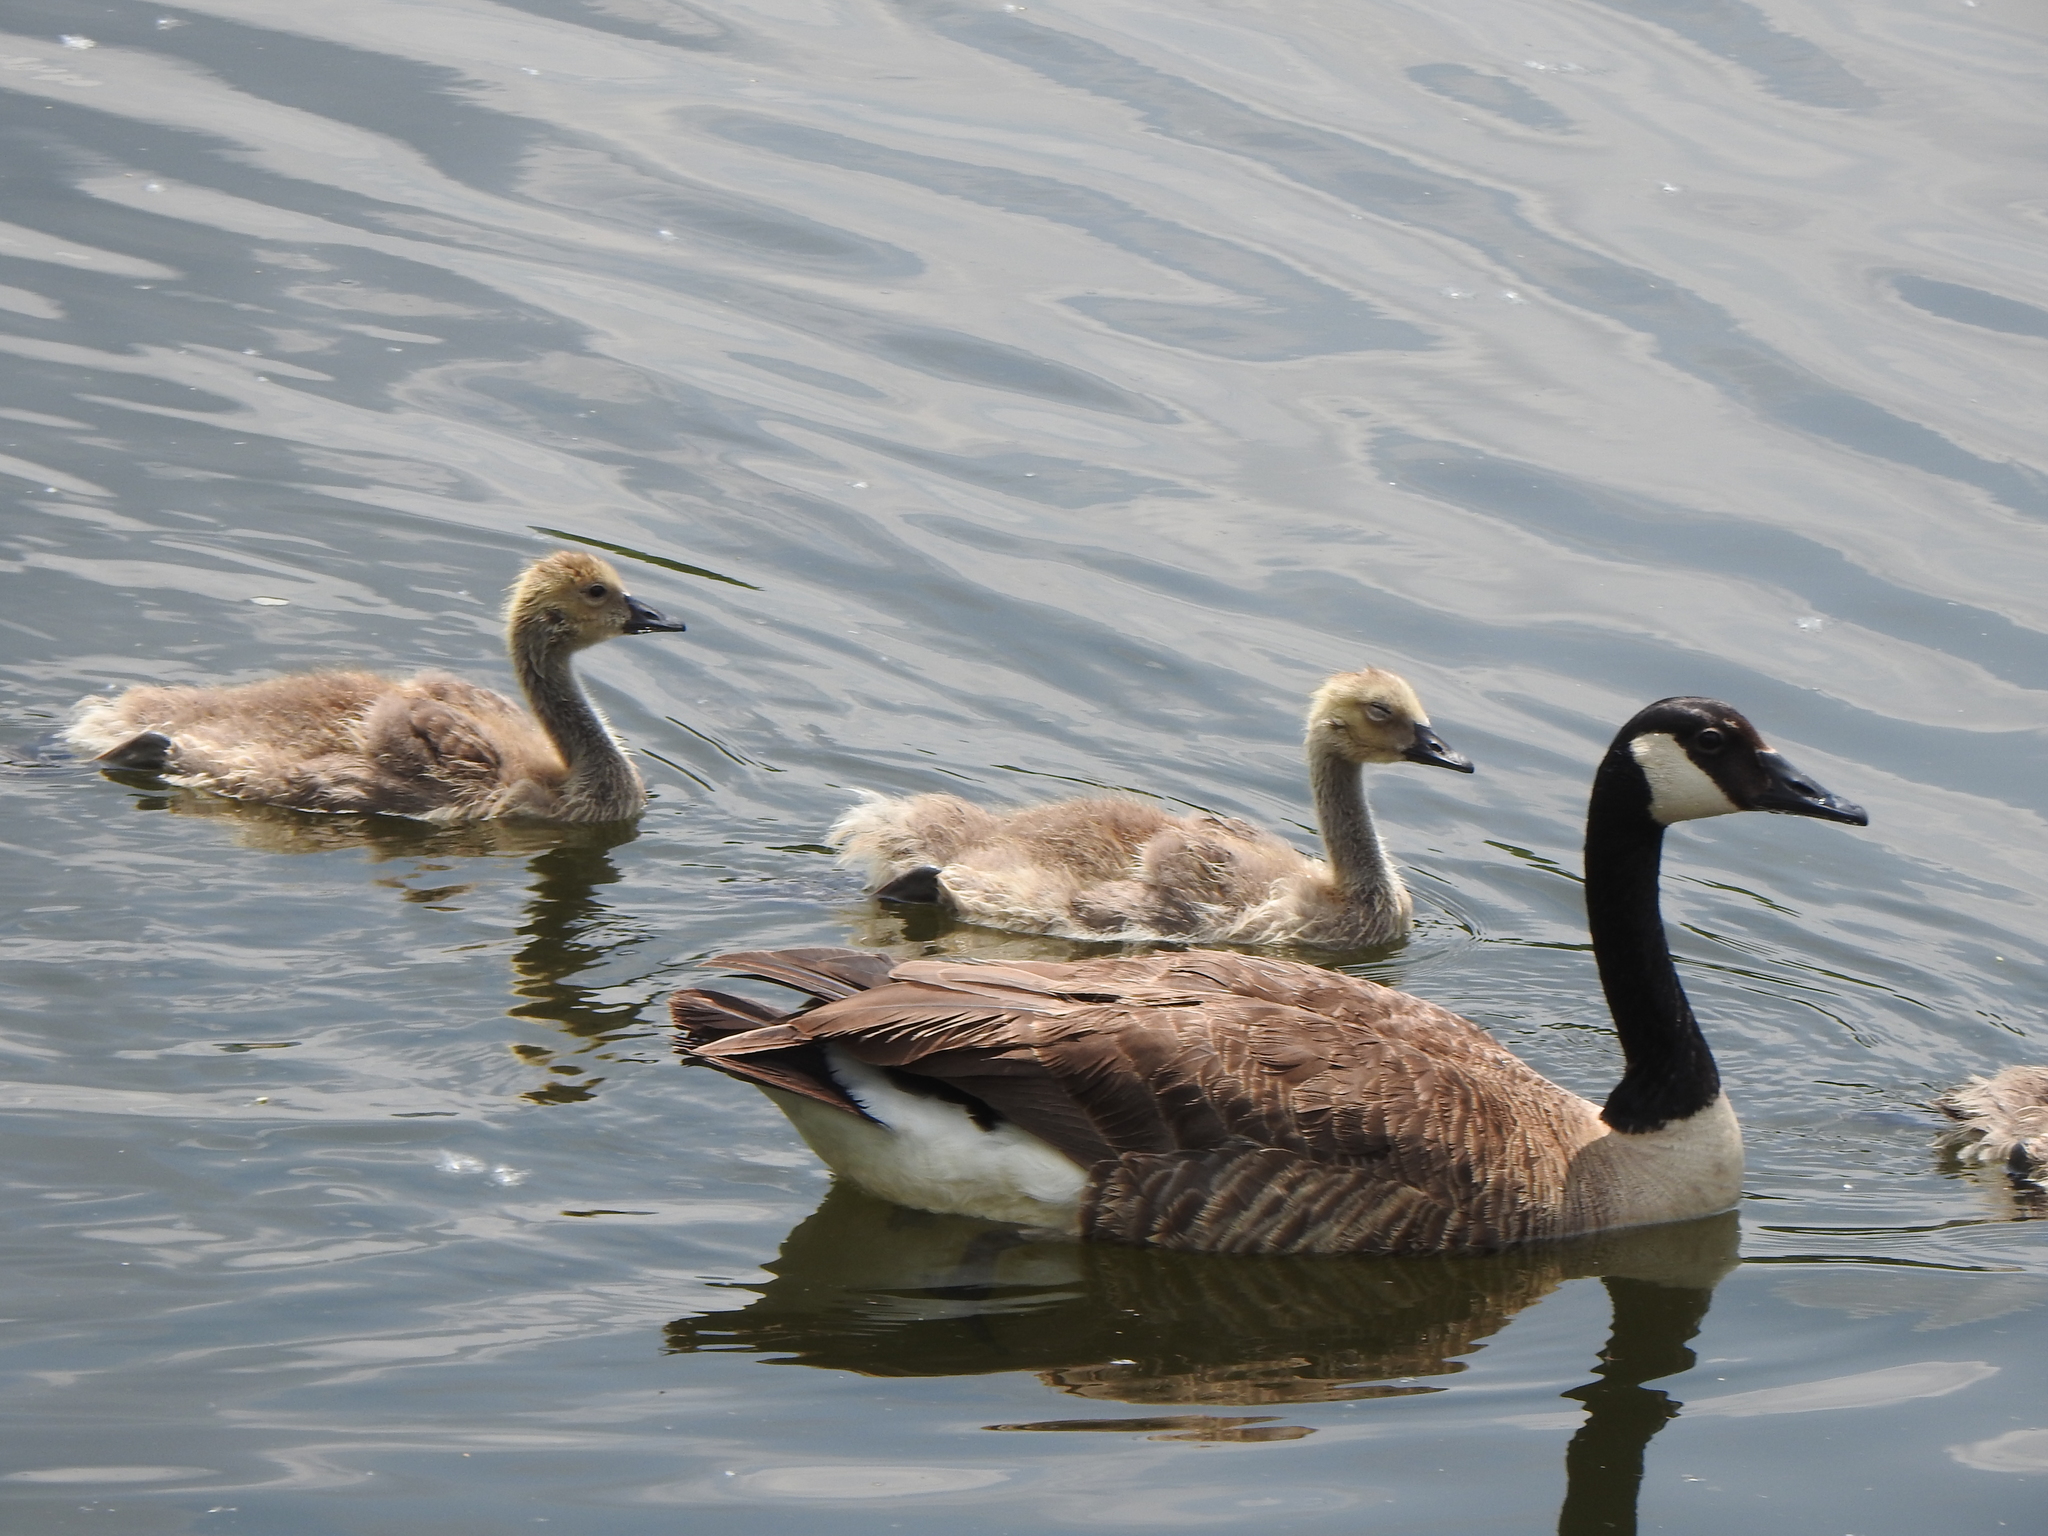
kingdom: Animalia
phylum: Chordata
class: Aves
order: Anseriformes
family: Anatidae
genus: Branta
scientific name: Branta canadensis
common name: Canada goose
